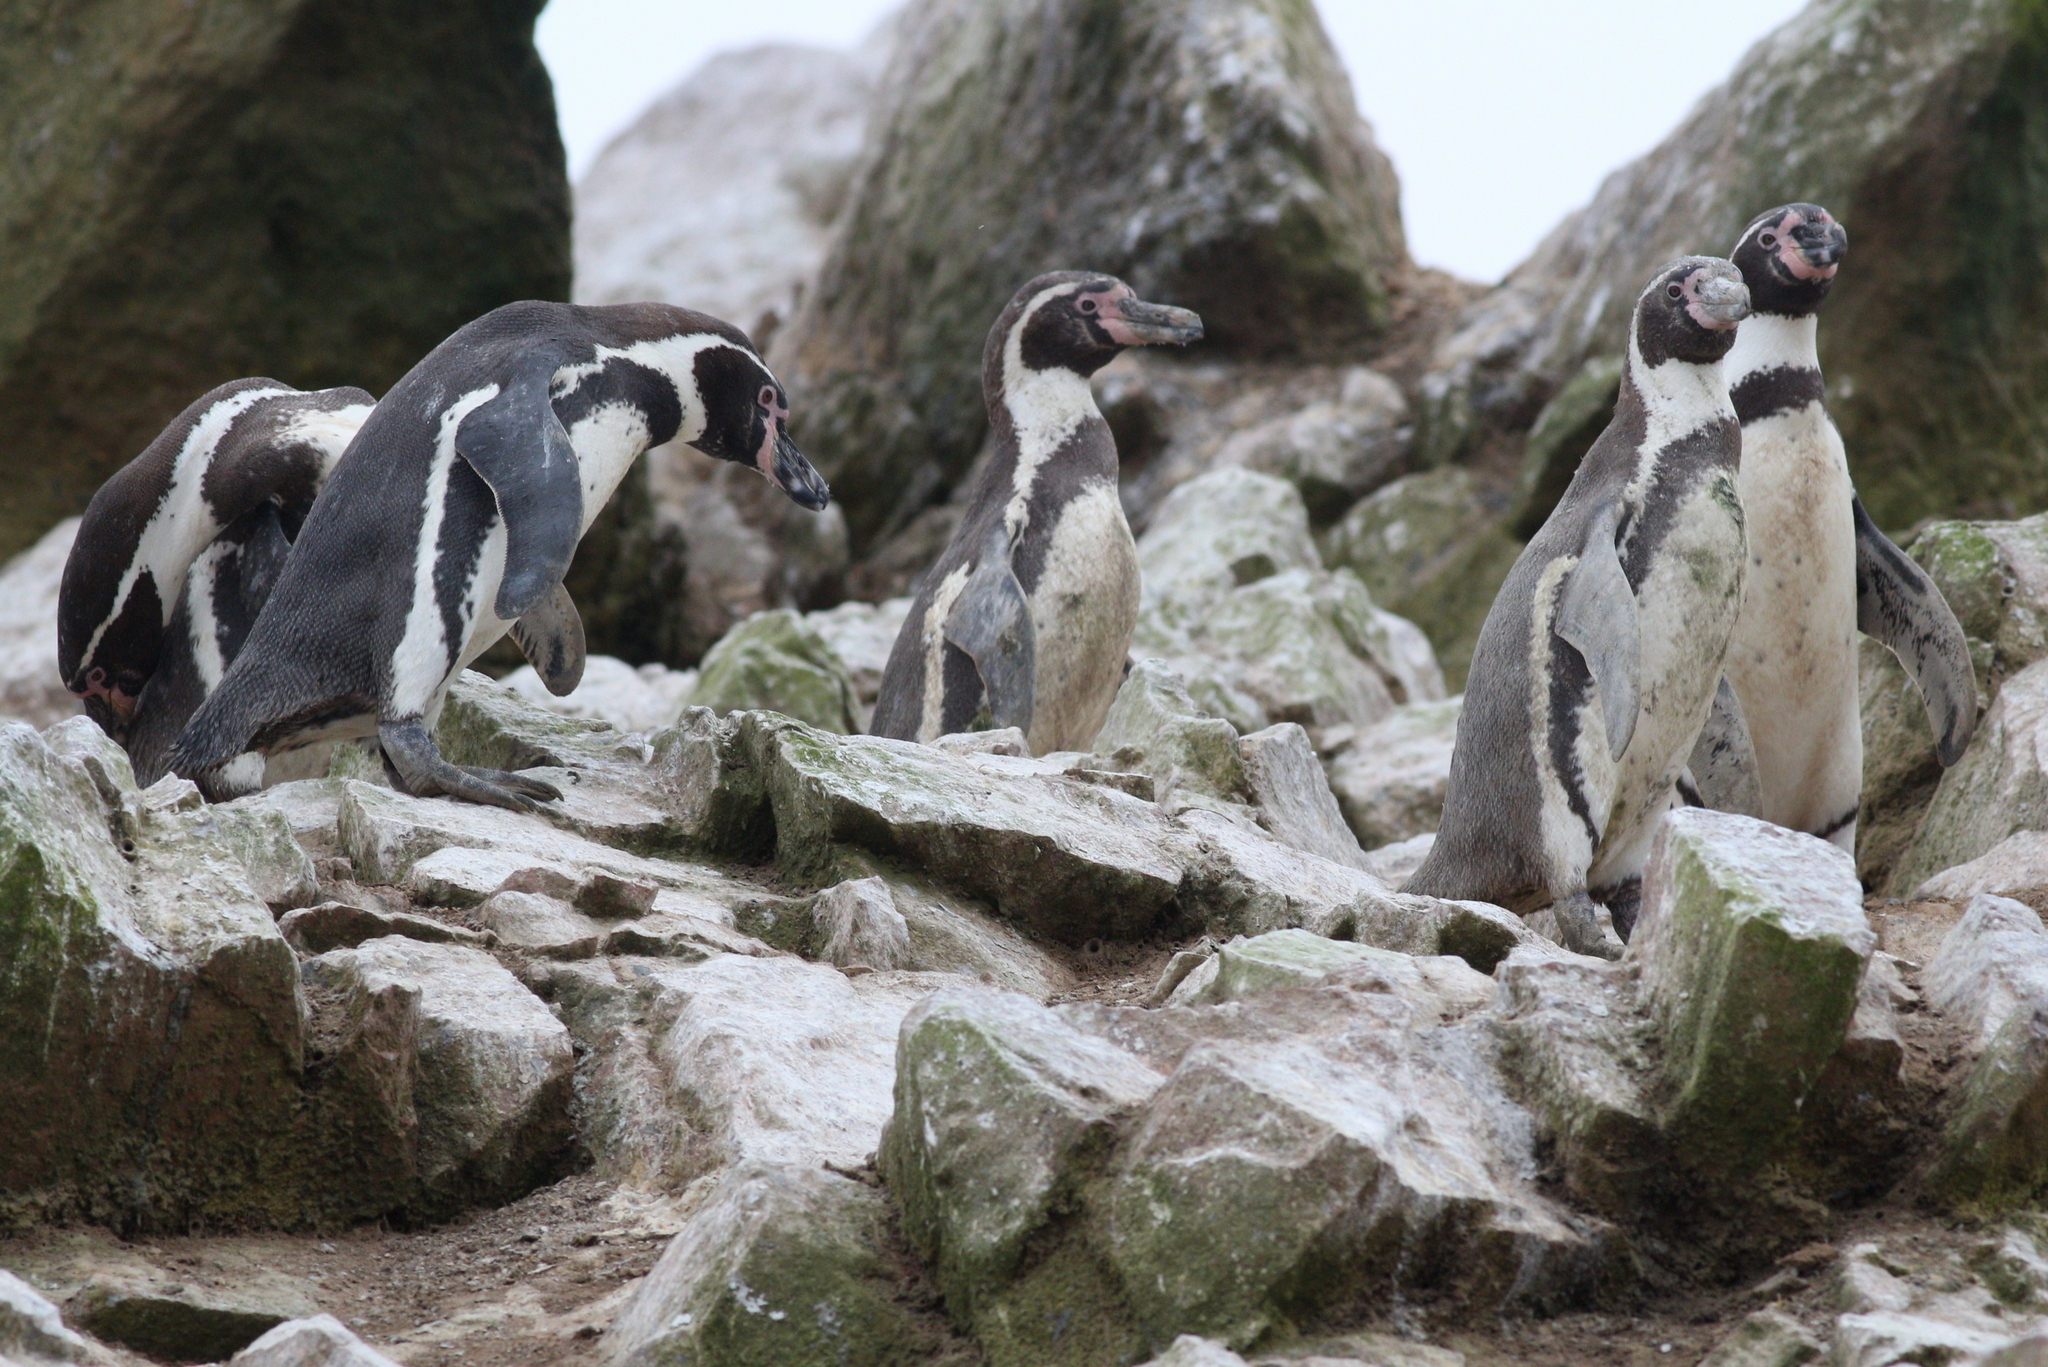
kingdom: Animalia
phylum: Chordata
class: Aves
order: Sphenisciformes
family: Spheniscidae
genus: Spheniscus
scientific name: Spheniscus humboldti
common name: Humboldt penguin
